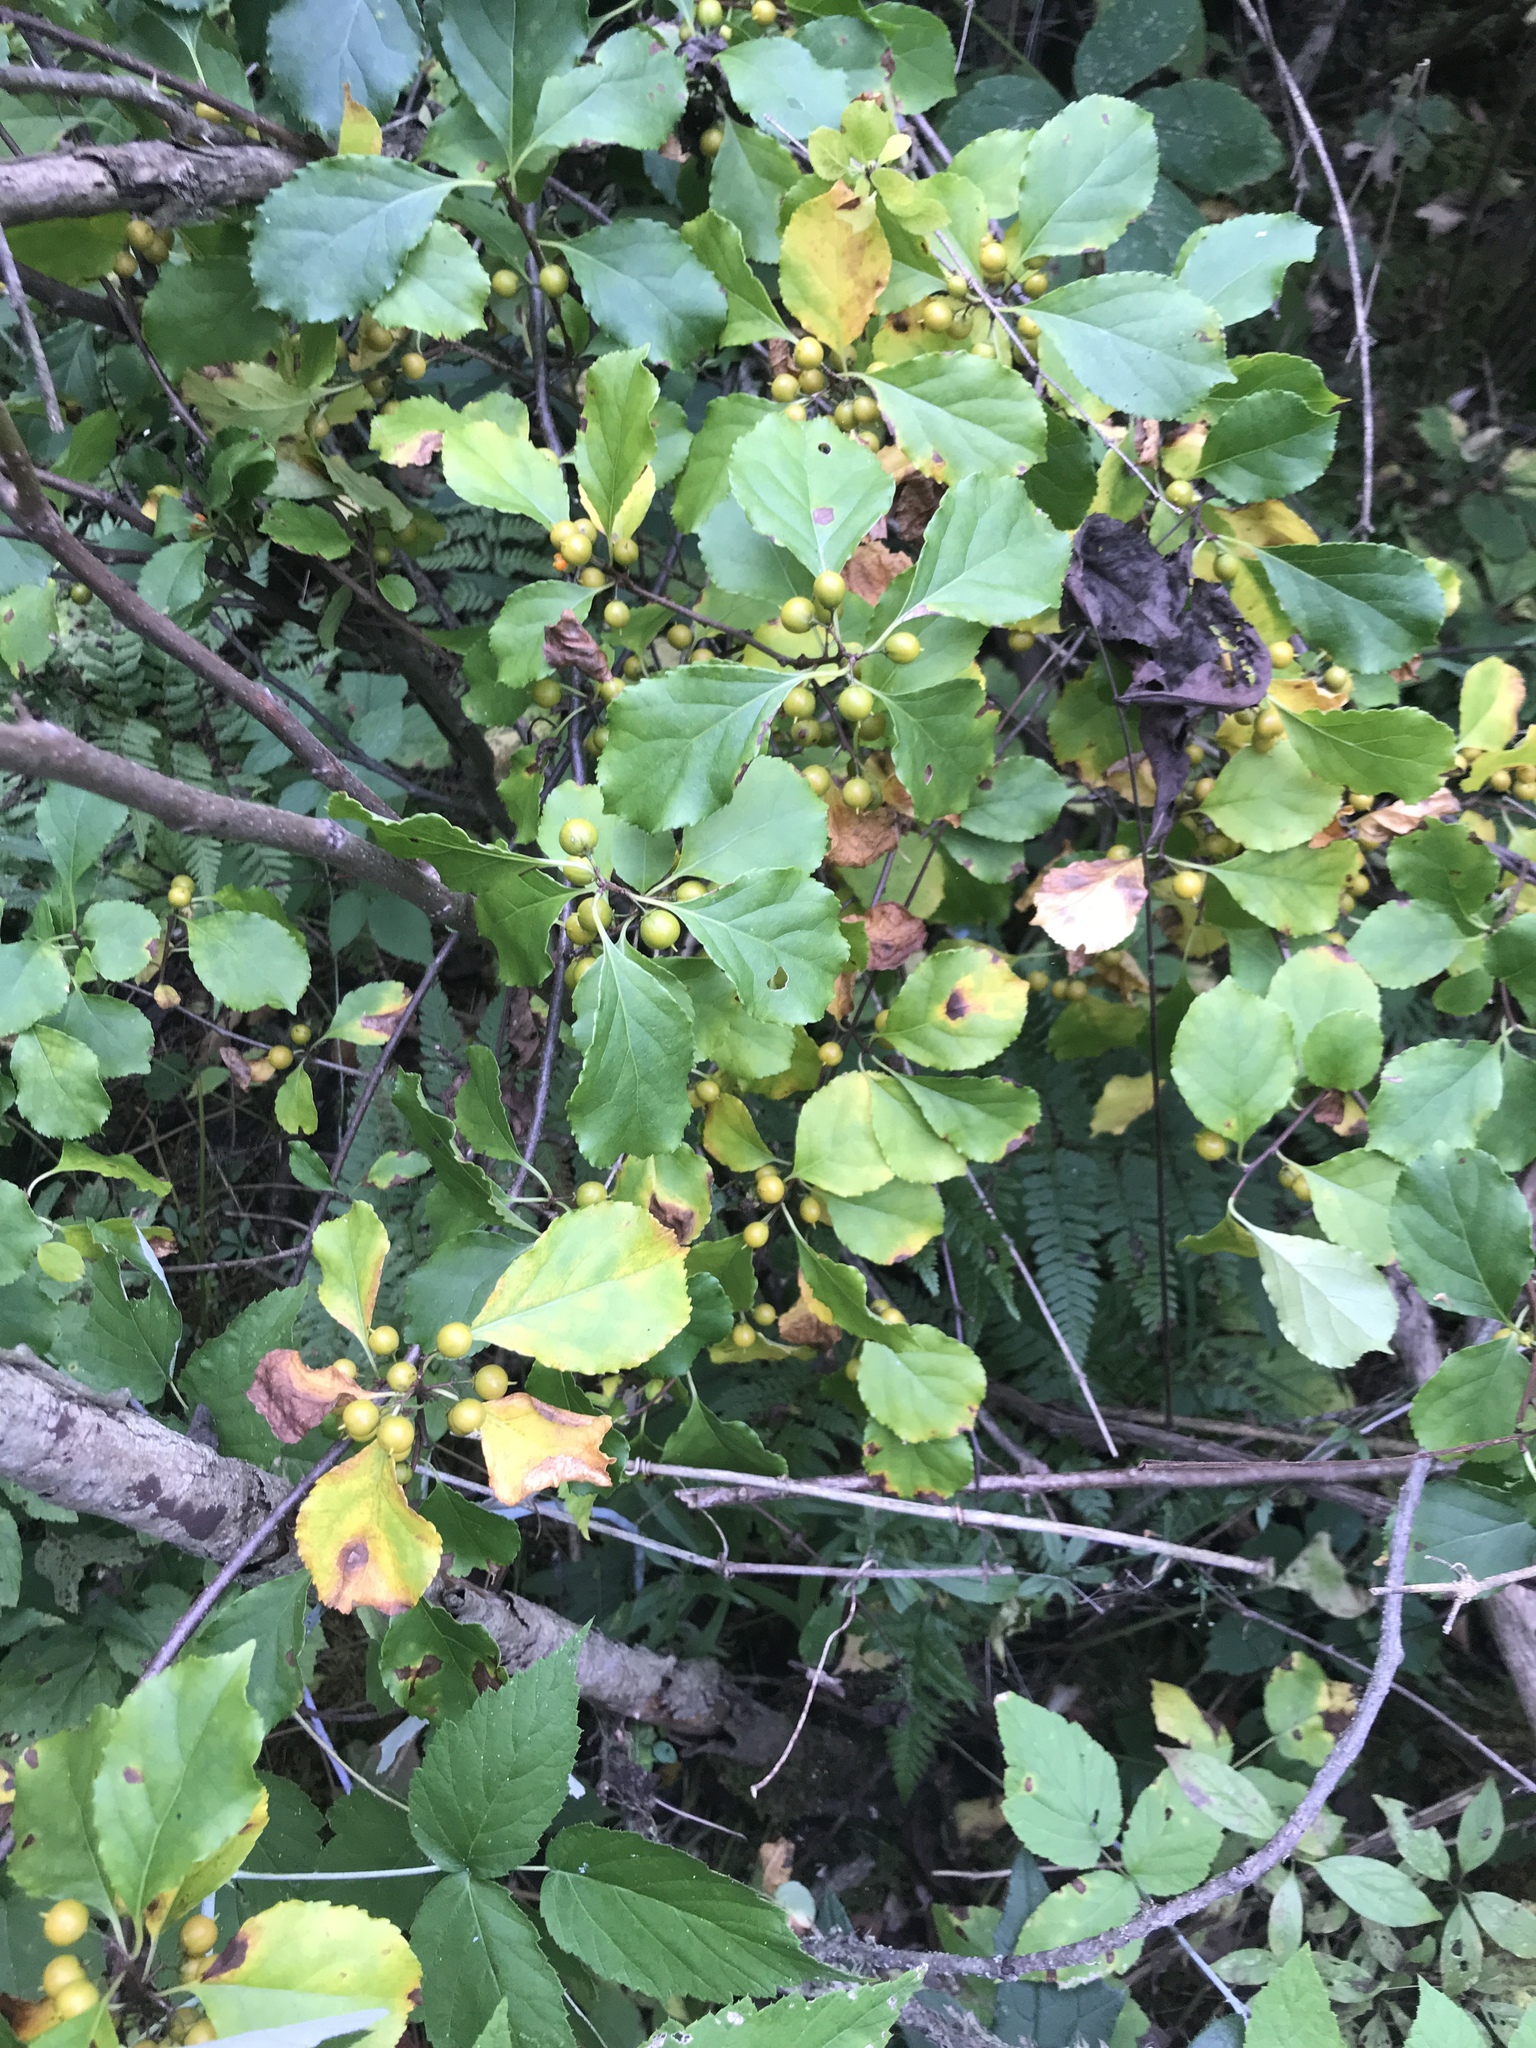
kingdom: Plantae
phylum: Tracheophyta
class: Magnoliopsida
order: Celastrales
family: Celastraceae
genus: Celastrus
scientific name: Celastrus orbiculatus
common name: Oriental bittersweet
